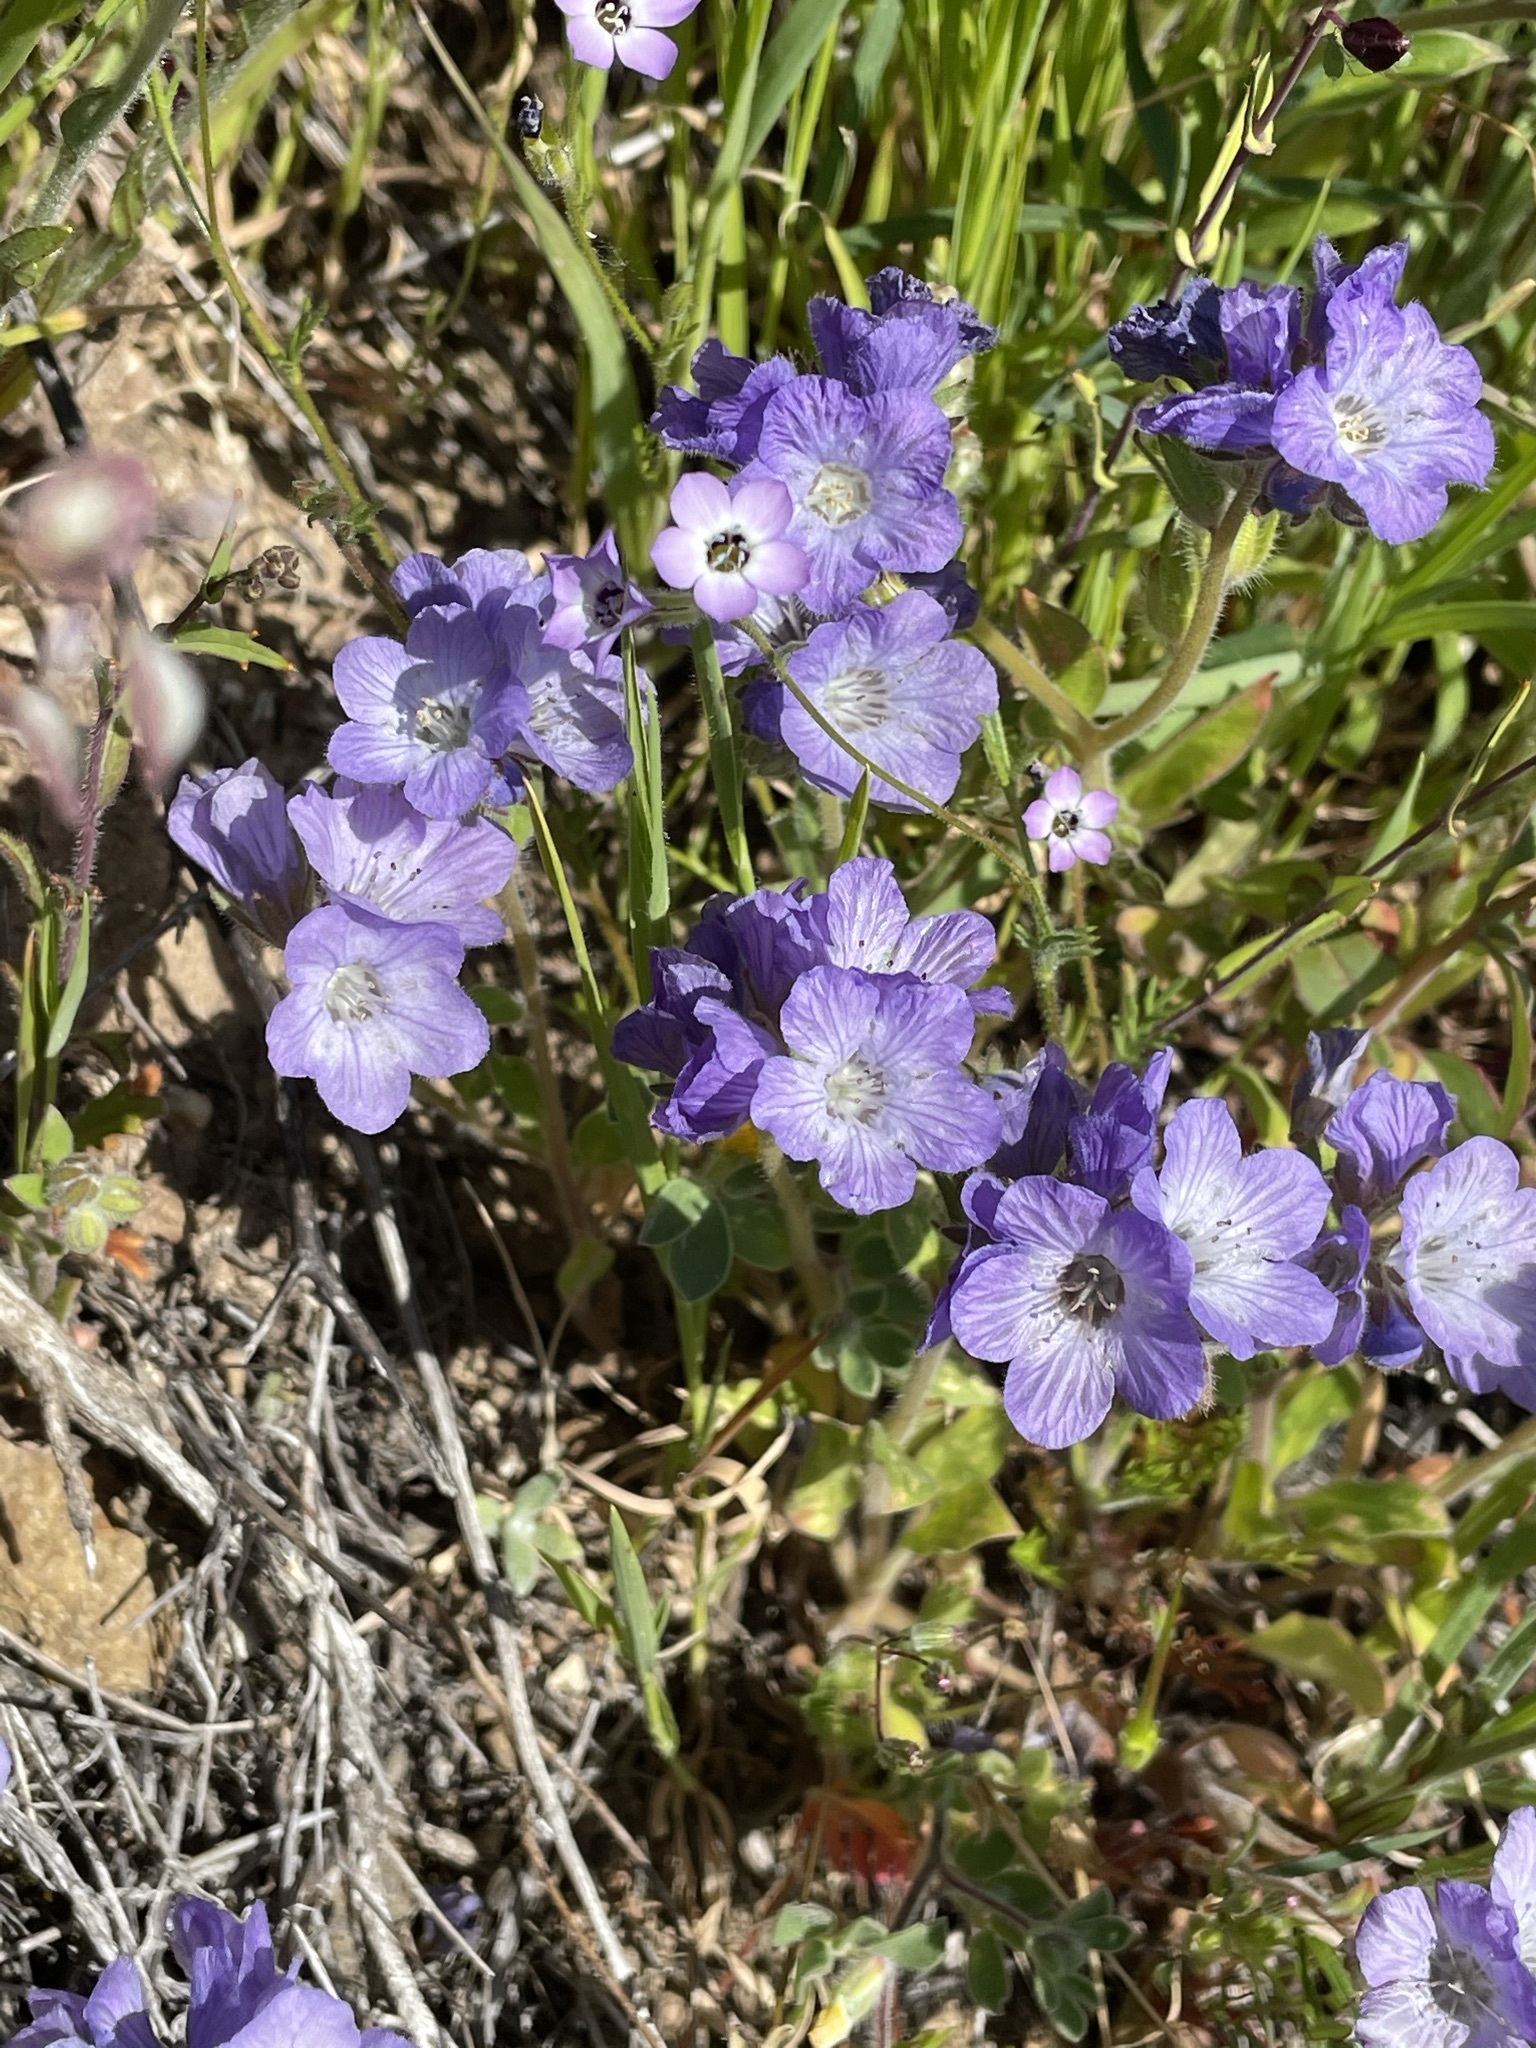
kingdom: Plantae
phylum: Tracheophyta
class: Magnoliopsida
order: Boraginales
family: Hydrophyllaceae
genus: Phacelia
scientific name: Phacelia divaricata
